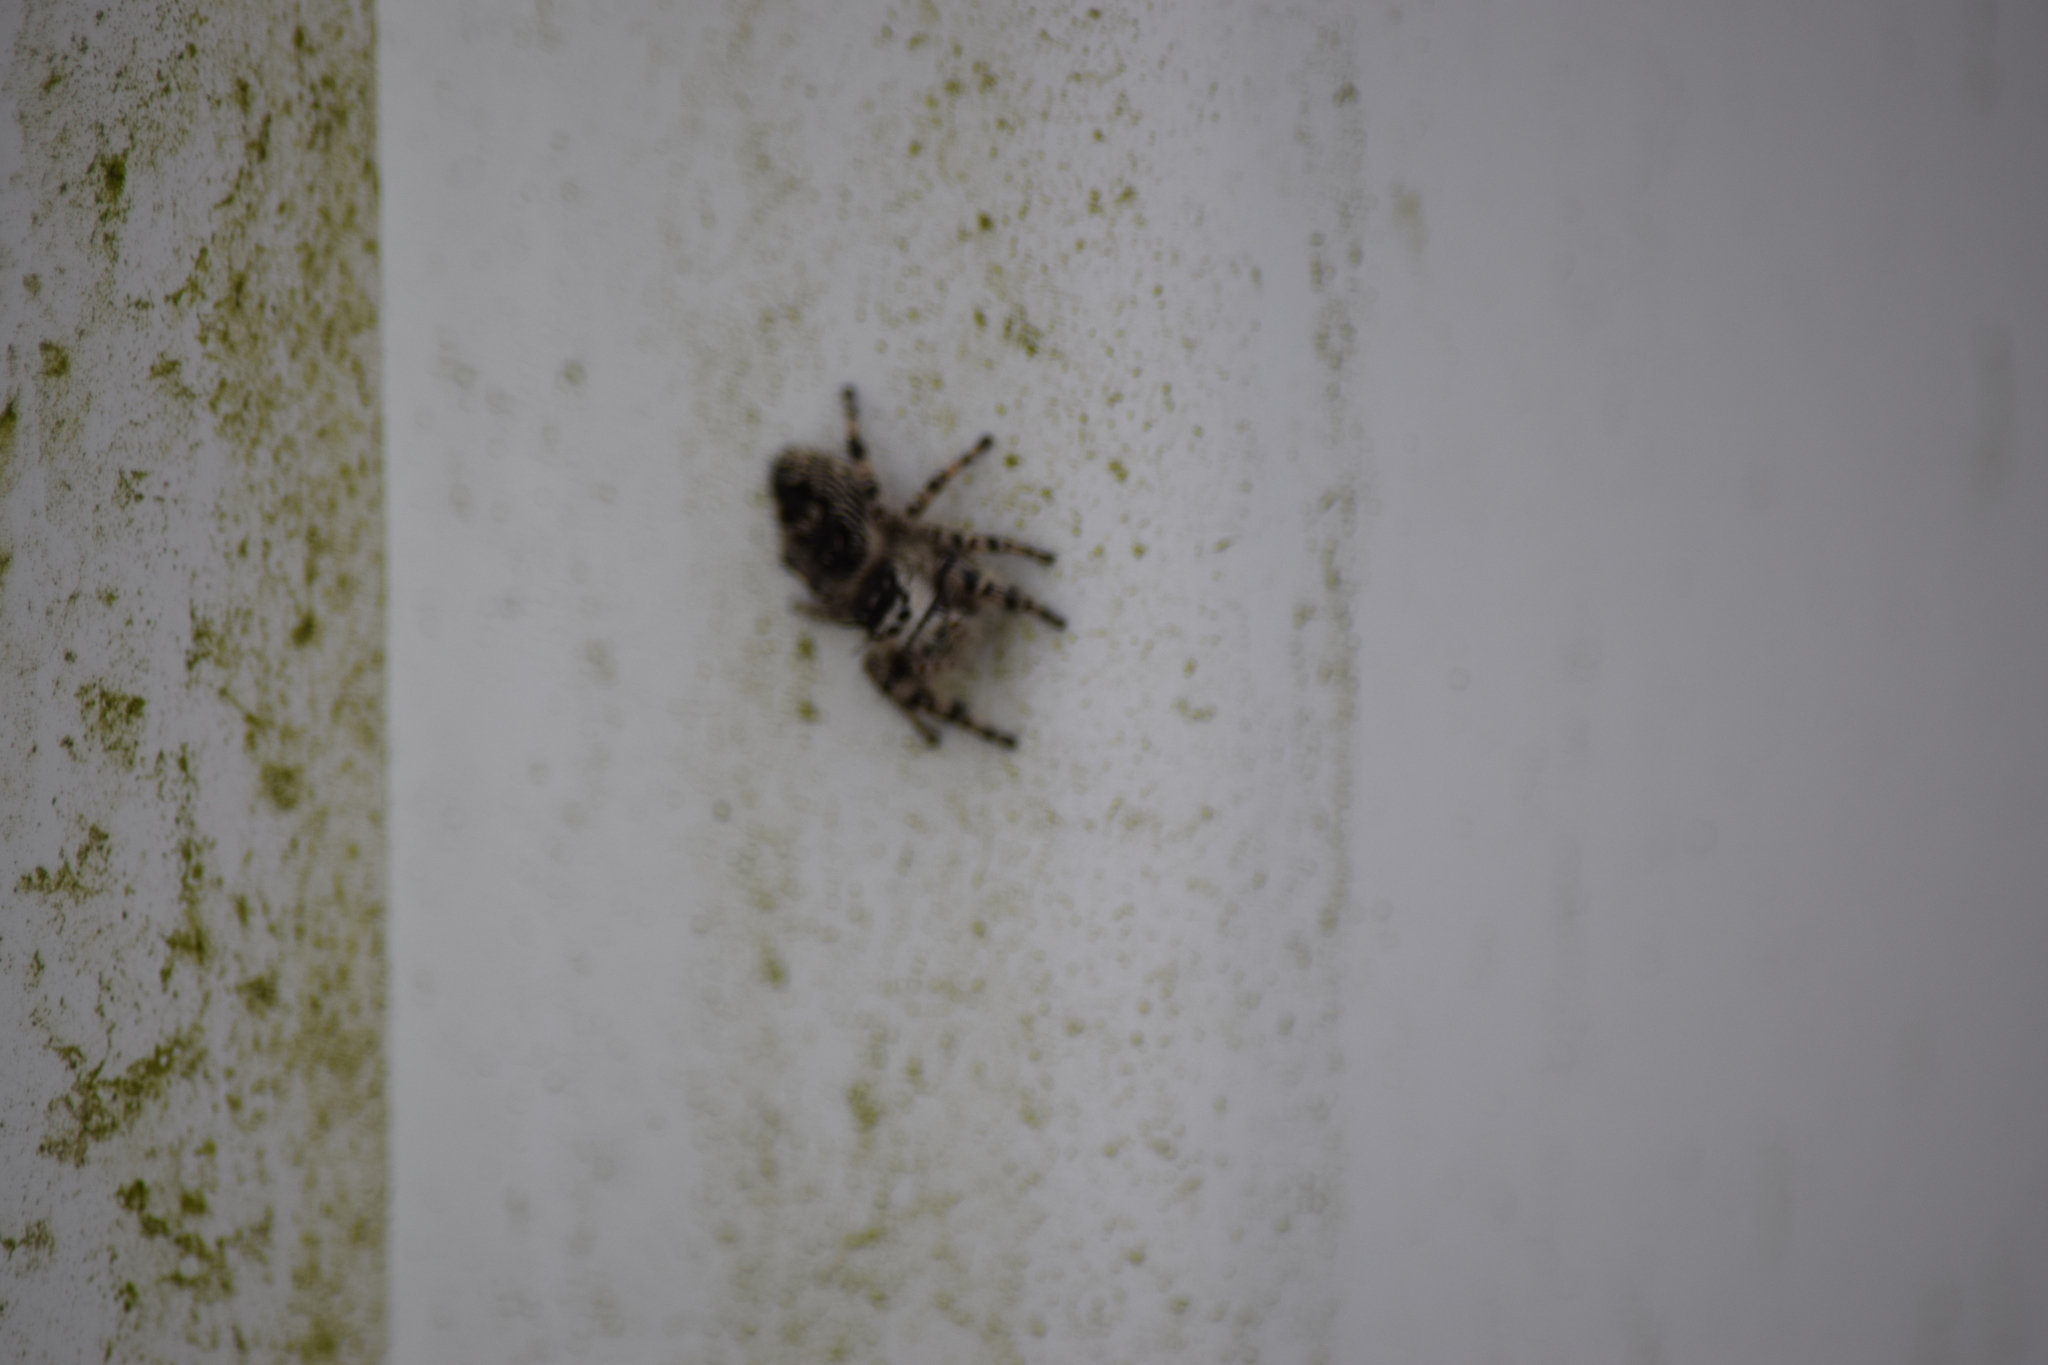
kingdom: Animalia
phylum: Arthropoda
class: Arachnida
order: Araneae
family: Salticidae
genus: Phidippus
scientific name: Phidippus otiosus
